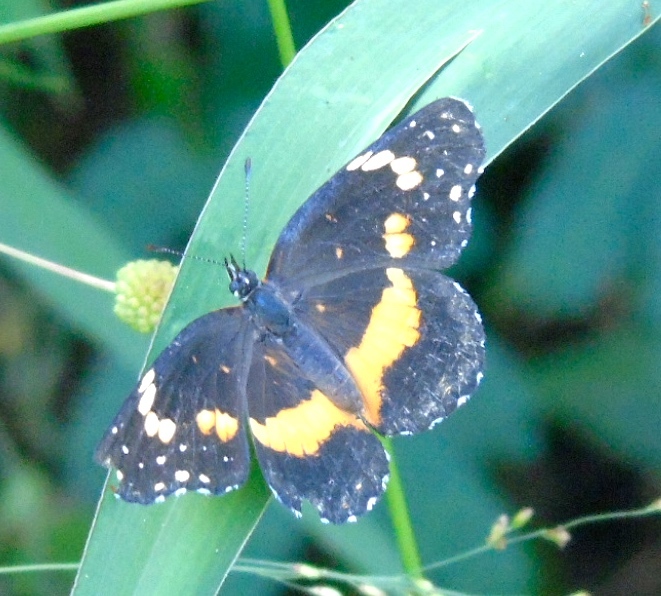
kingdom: Animalia
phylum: Arthropoda
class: Insecta
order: Lepidoptera
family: Nymphalidae
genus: Chlosyne
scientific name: Chlosyne lacinia
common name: Bordered patch
